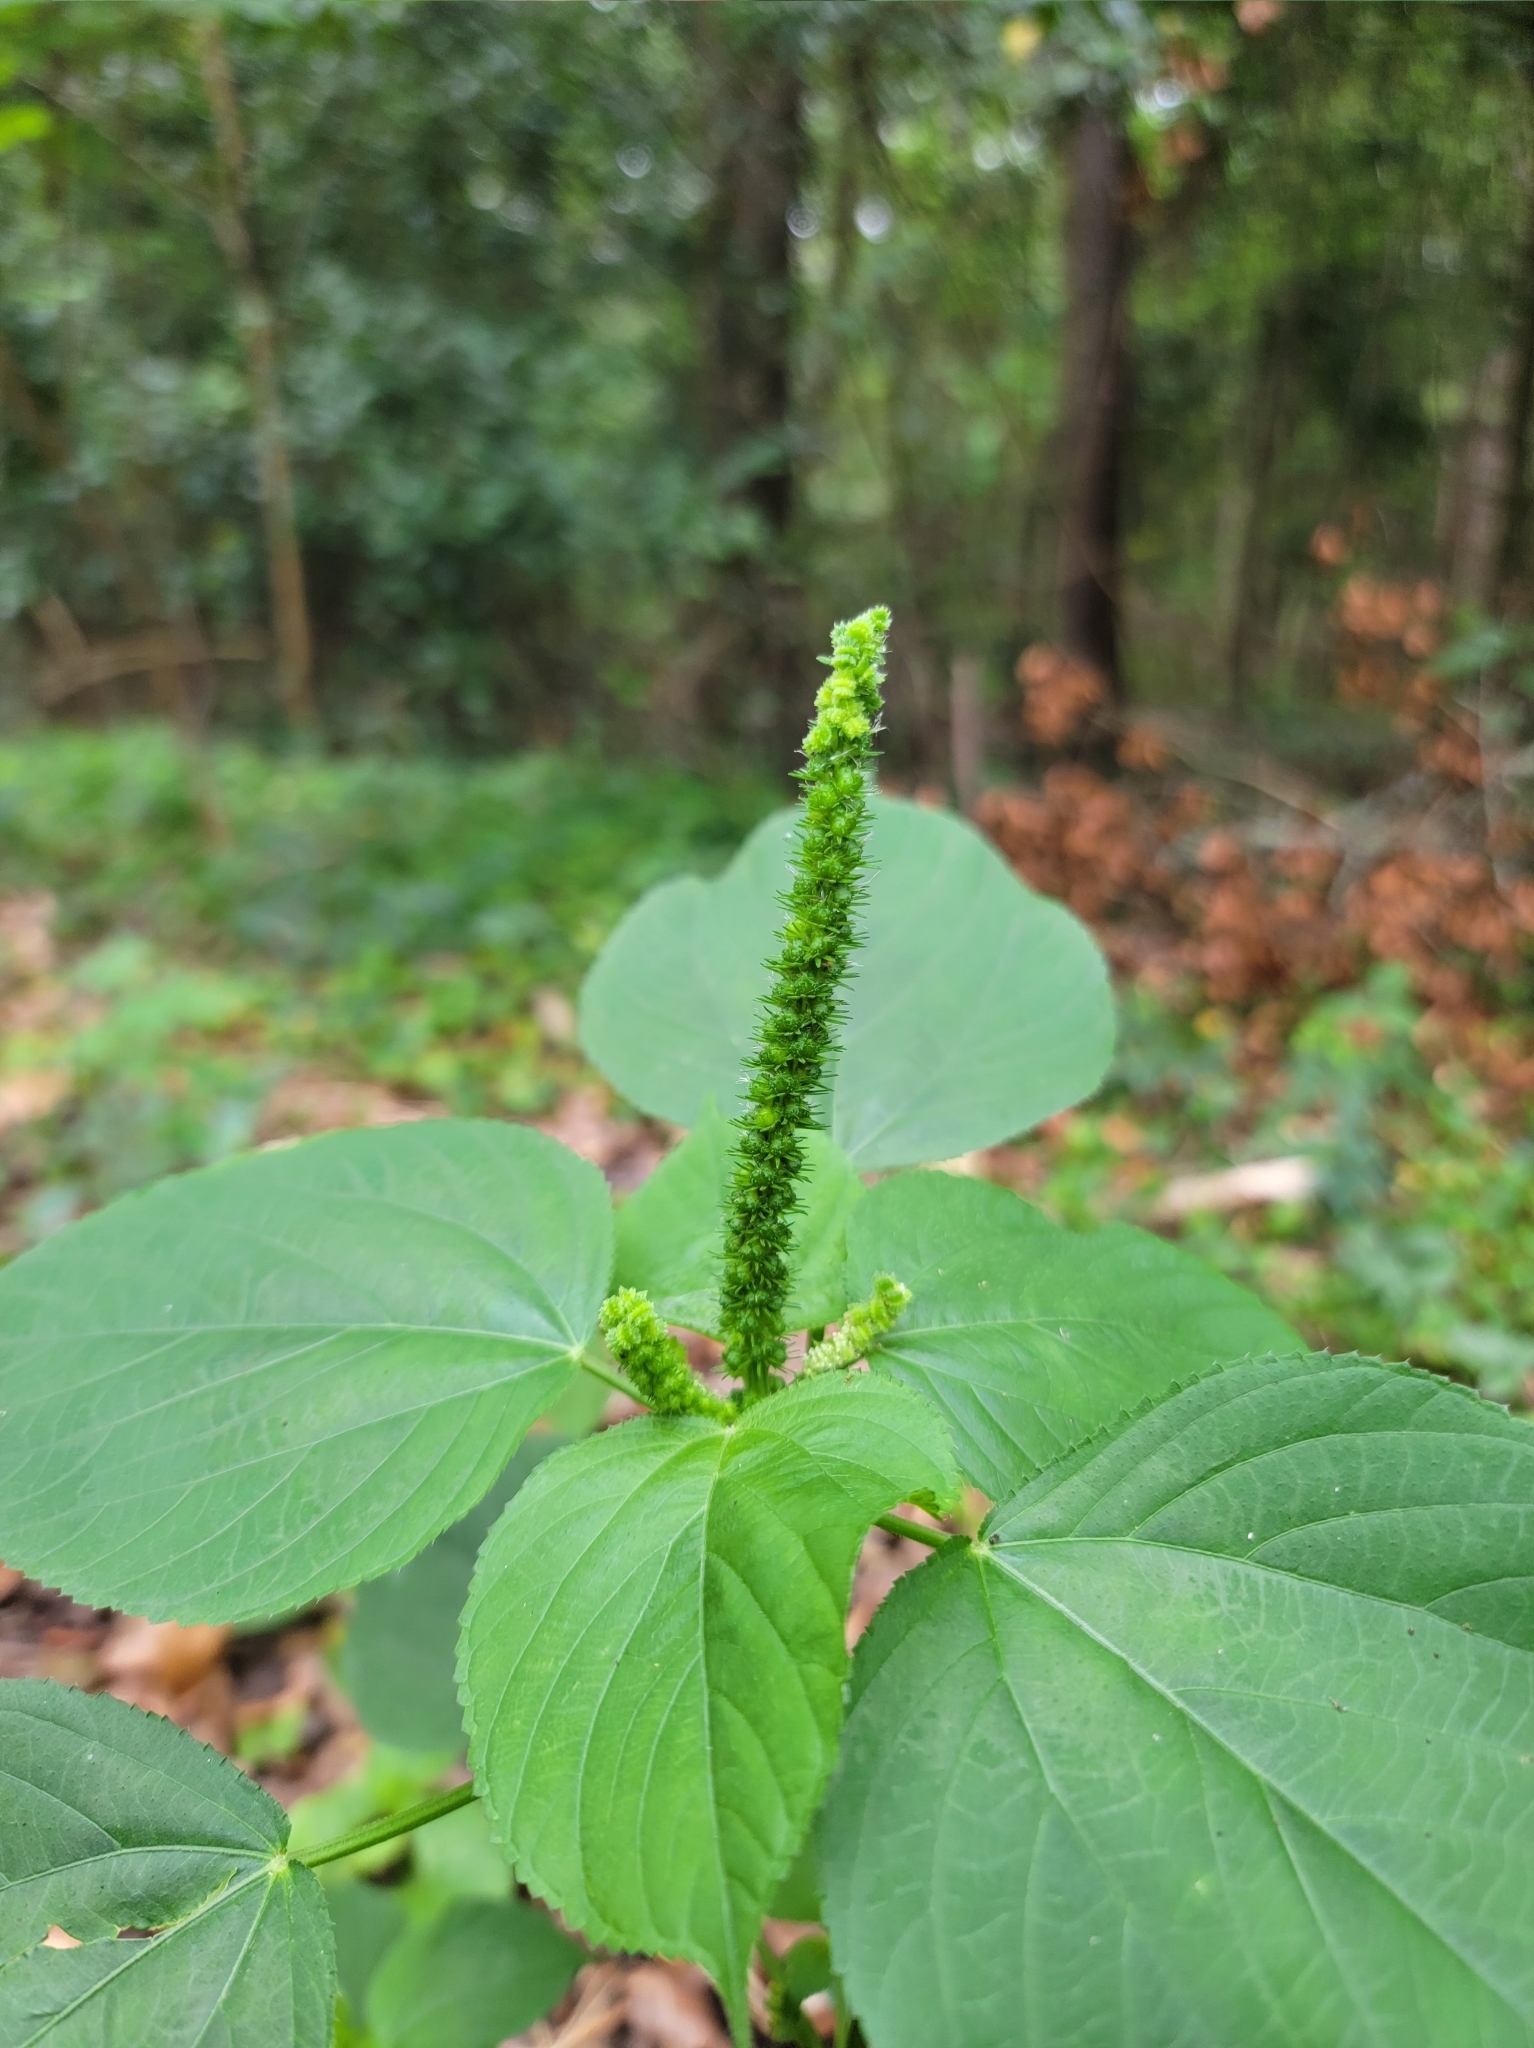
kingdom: Plantae
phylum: Tracheophyta
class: Magnoliopsida
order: Malpighiales
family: Euphorbiaceae
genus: Acalypha
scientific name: Acalypha ostryifolia
